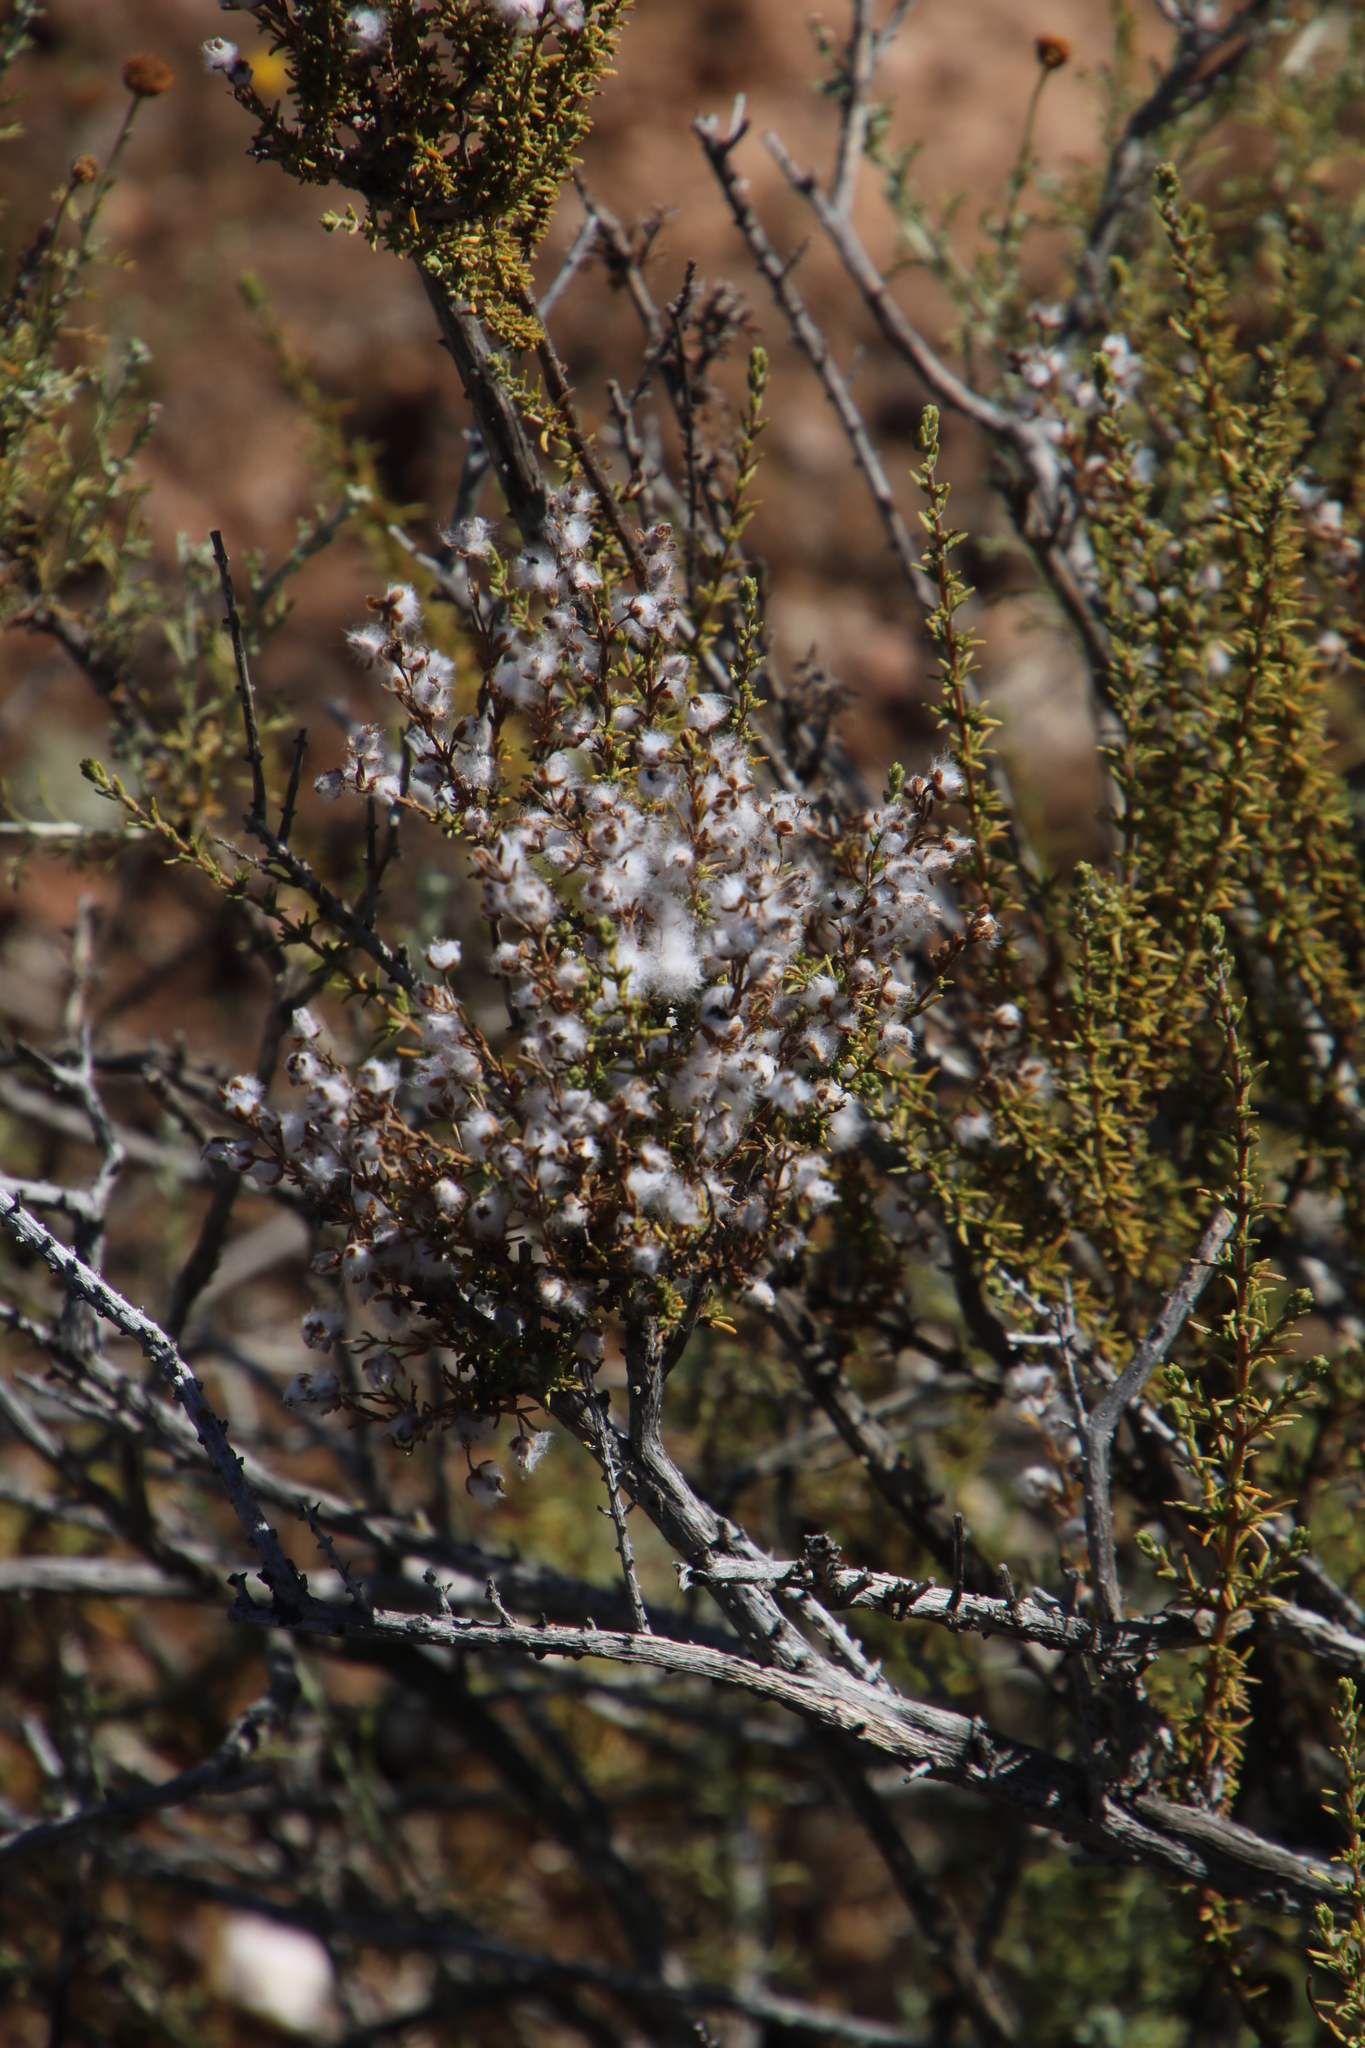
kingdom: Plantae
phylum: Tracheophyta
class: Magnoliopsida
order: Asterales
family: Asteraceae
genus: Eriocephalus
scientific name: Eriocephalus ericoides
